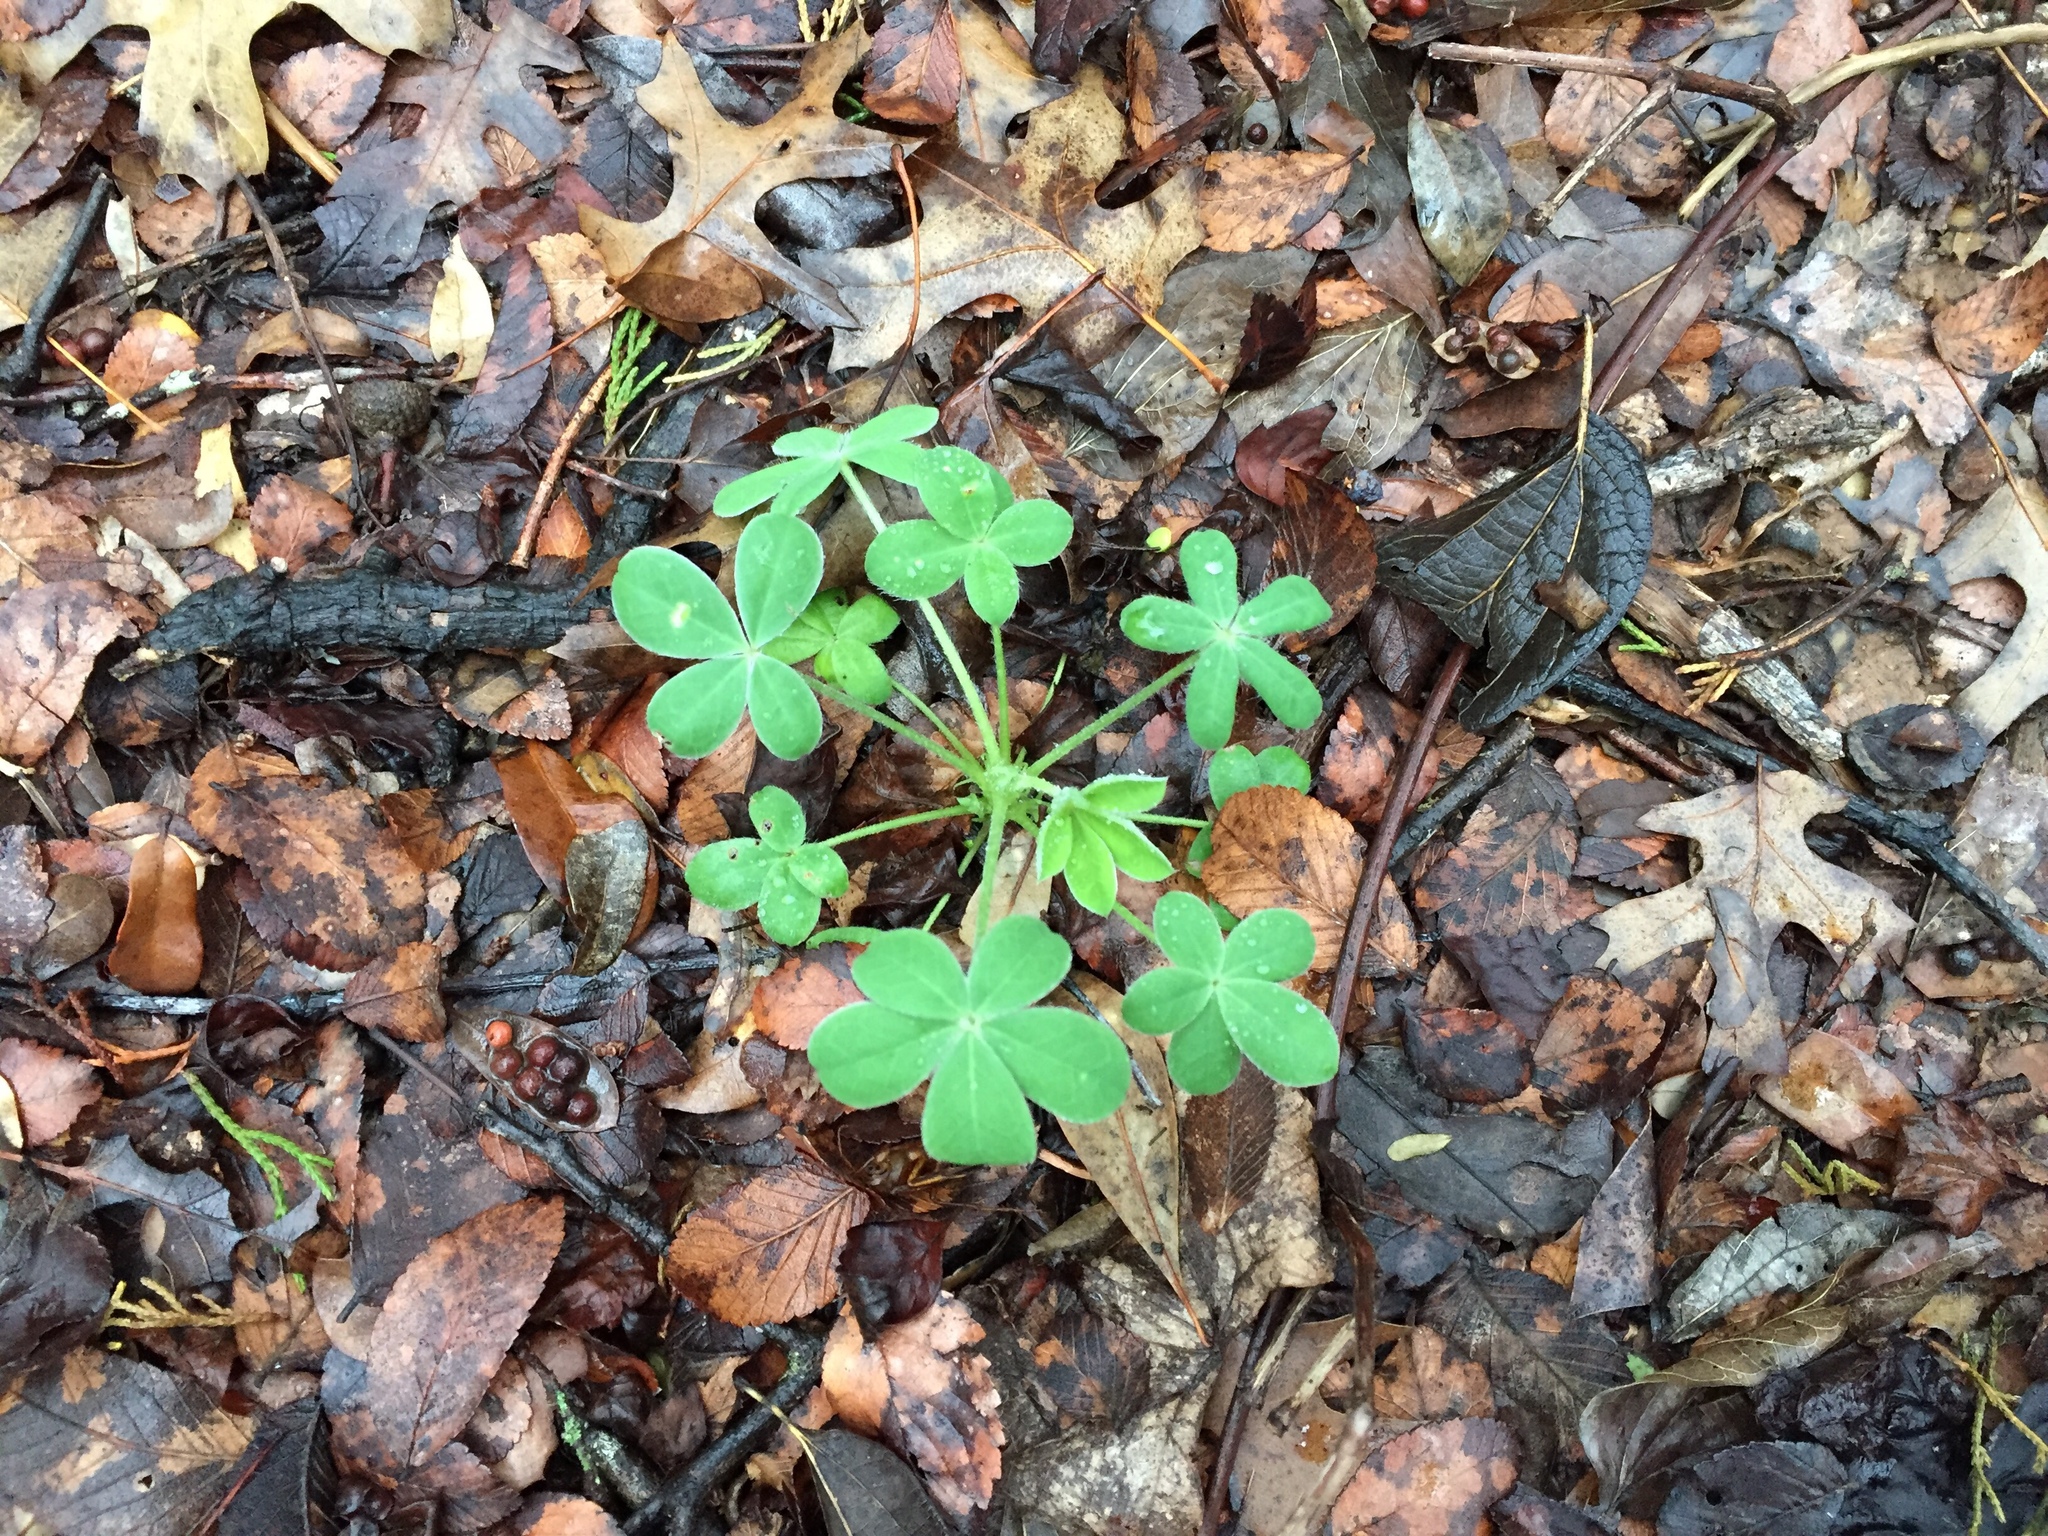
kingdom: Plantae
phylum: Tracheophyta
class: Magnoliopsida
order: Fabales
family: Fabaceae
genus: Lupinus
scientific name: Lupinus texensis
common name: Texas bluebonnet
